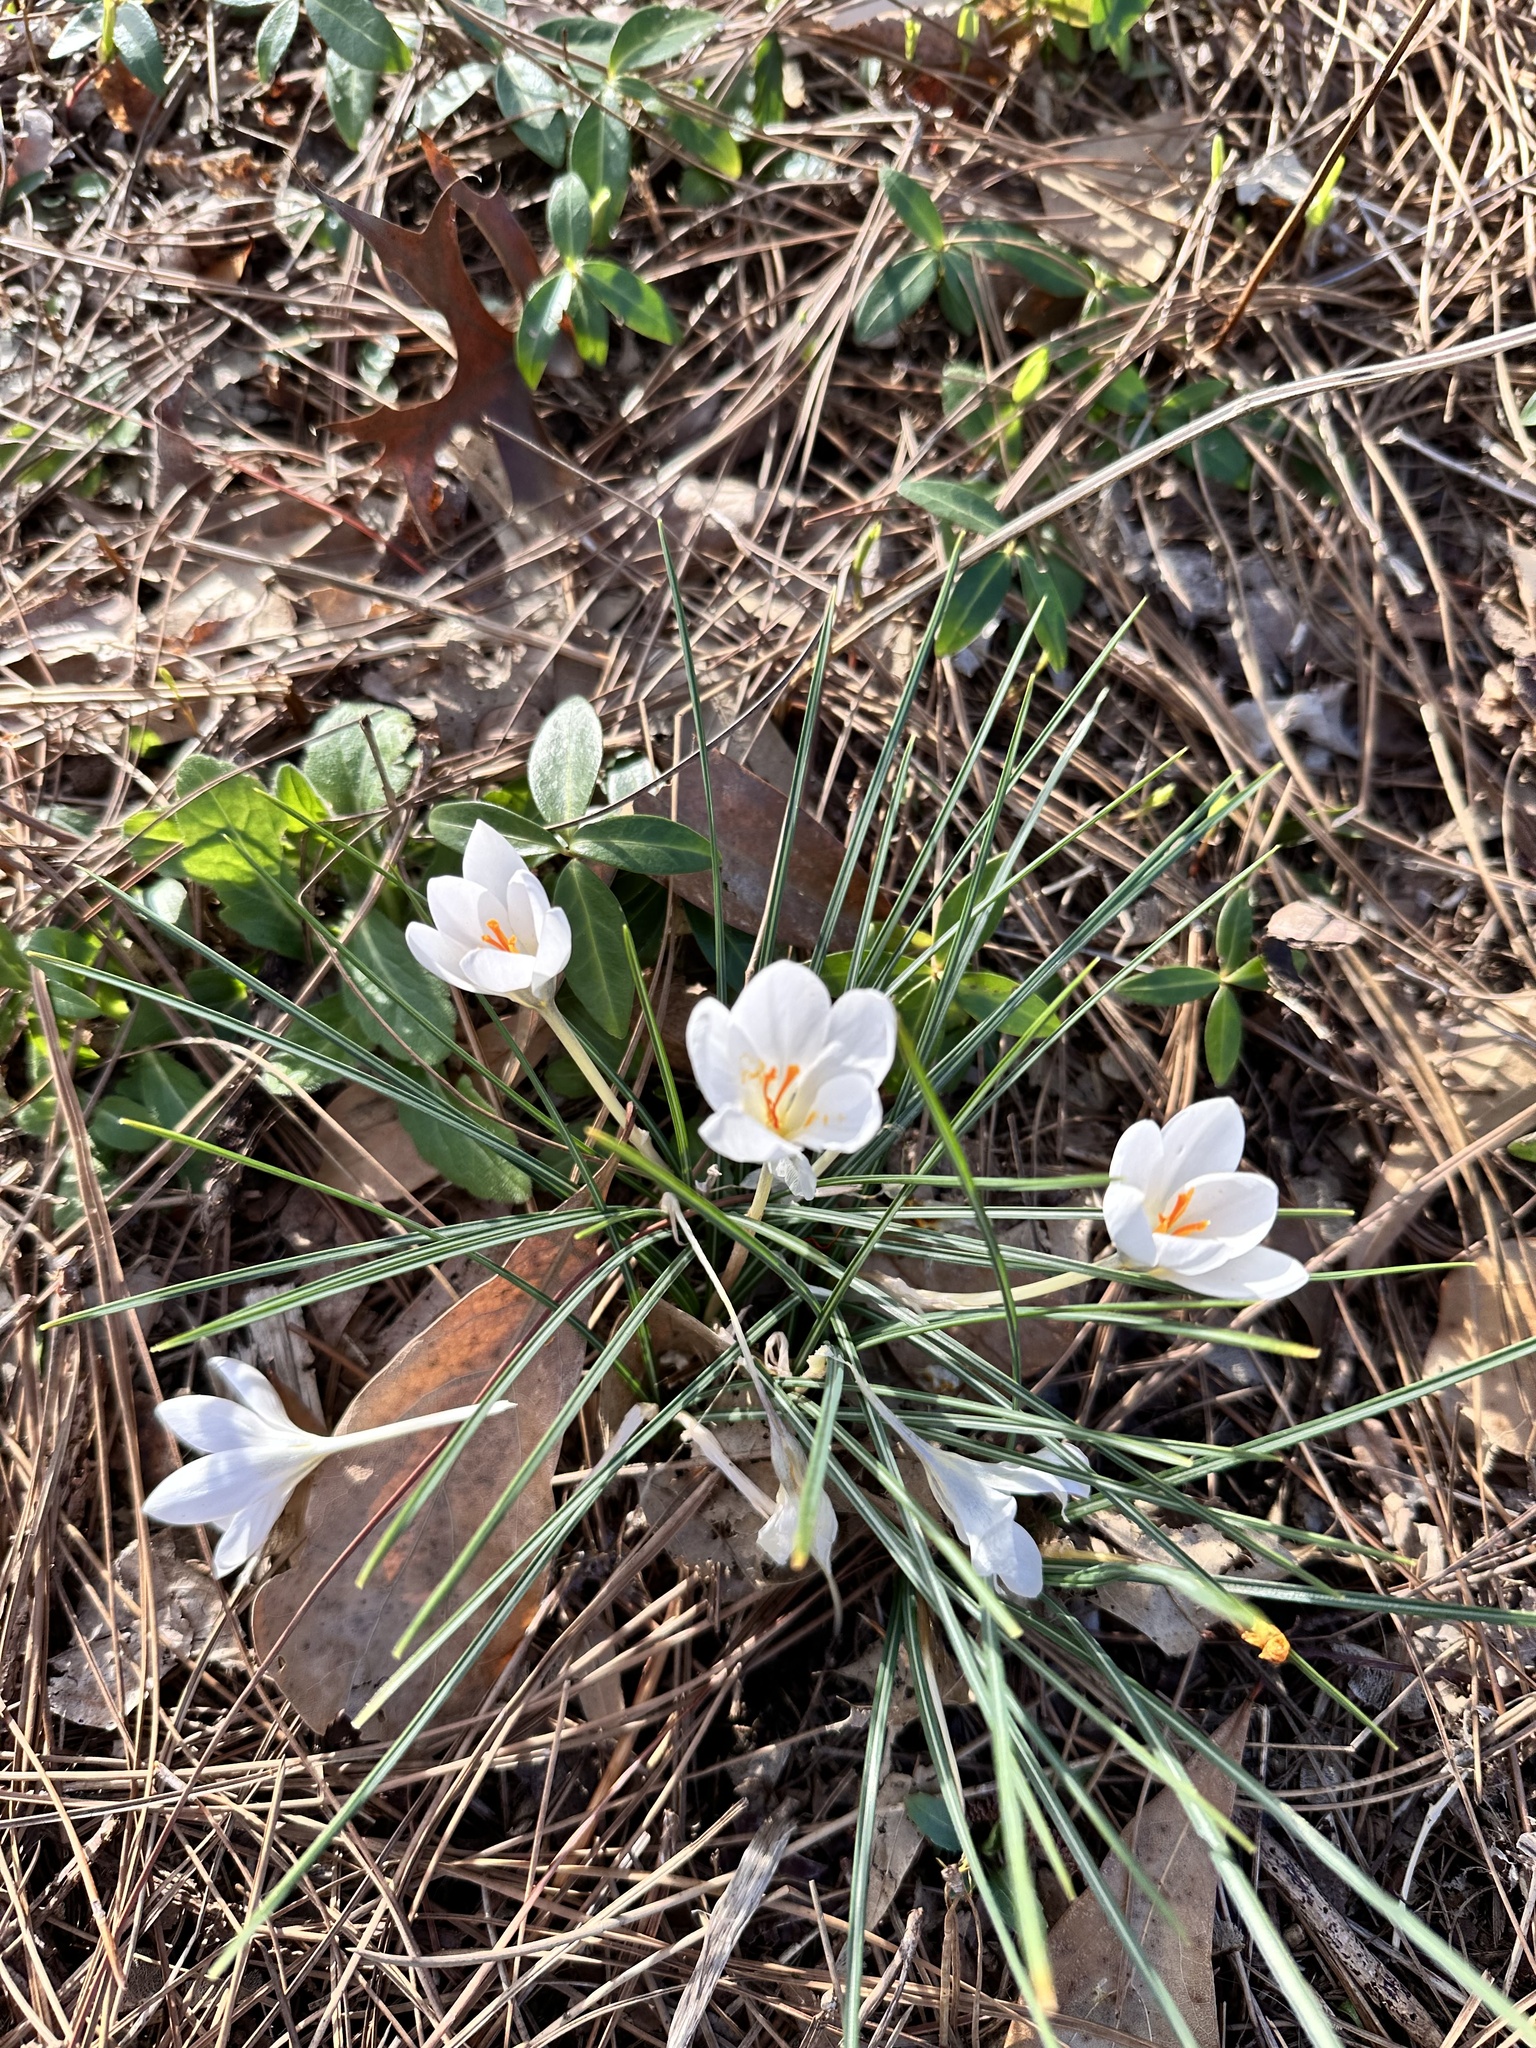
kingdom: Plantae
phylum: Tracheophyta
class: Liliopsida
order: Asparagales
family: Iridaceae
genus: Crocus
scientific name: Crocus vernus
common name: Spring crocus
